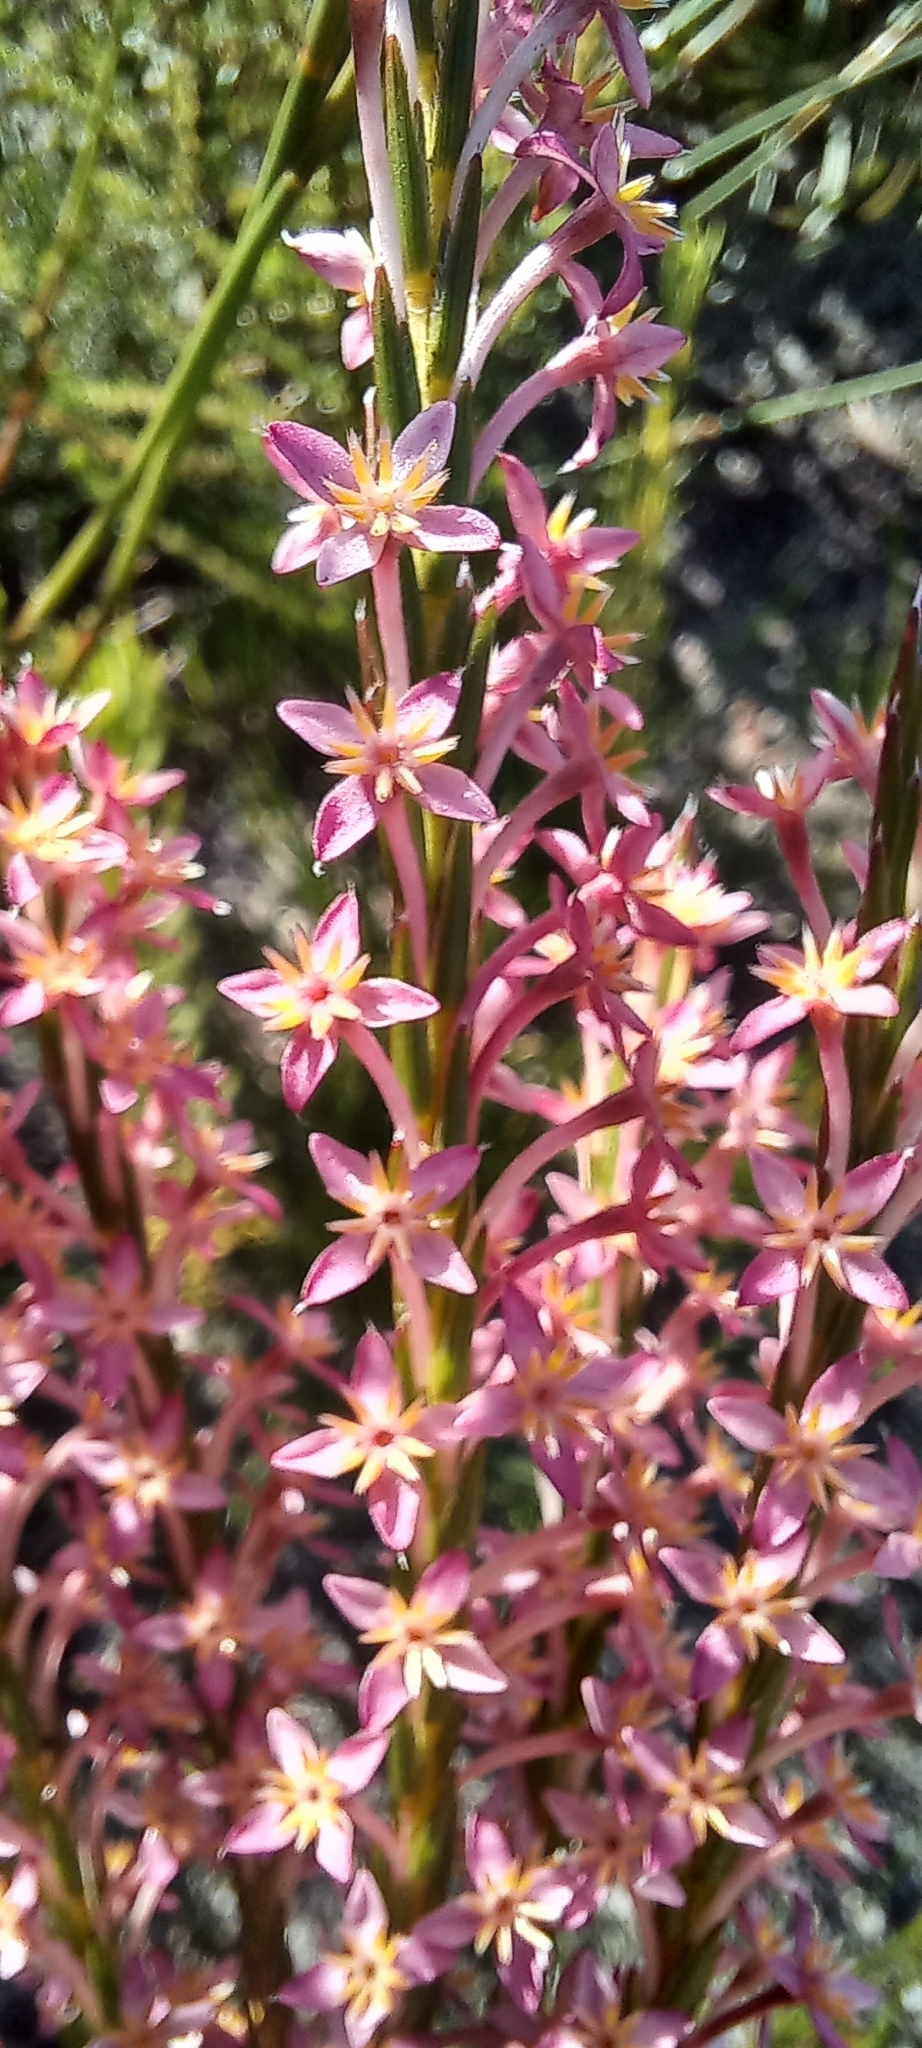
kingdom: Plantae
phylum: Tracheophyta
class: Magnoliopsida
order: Malvales
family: Thymelaeaceae
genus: Struthiola
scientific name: Struthiola ciliata
